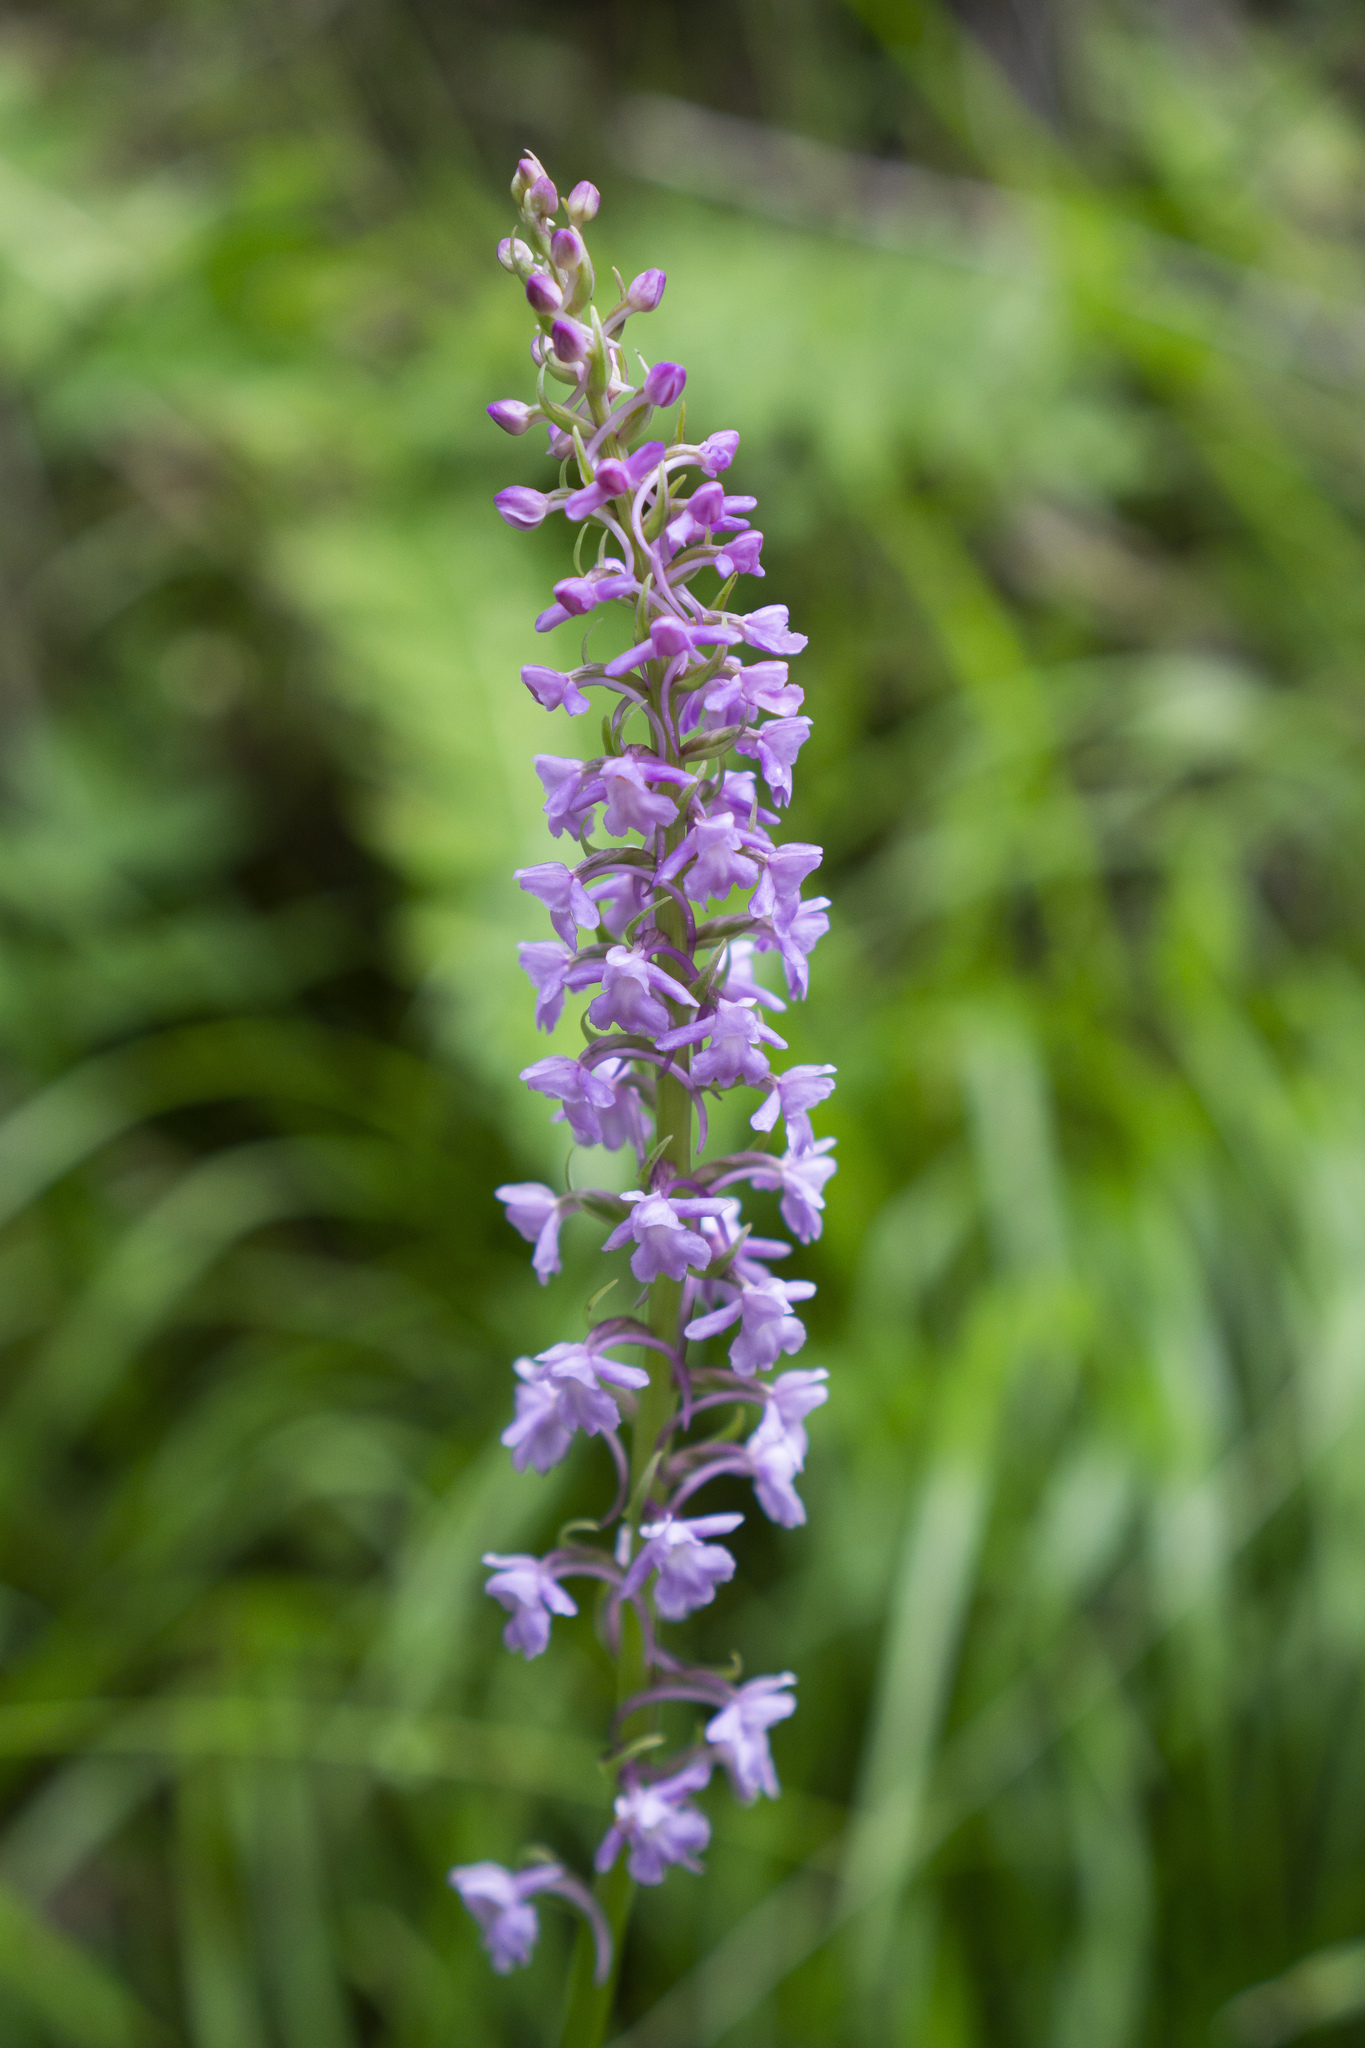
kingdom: Plantae
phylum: Tracheophyta
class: Liliopsida
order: Asparagales
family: Orchidaceae
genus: Gymnadenia
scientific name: Gymnadenia conopsea
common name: Fragrant orchid
